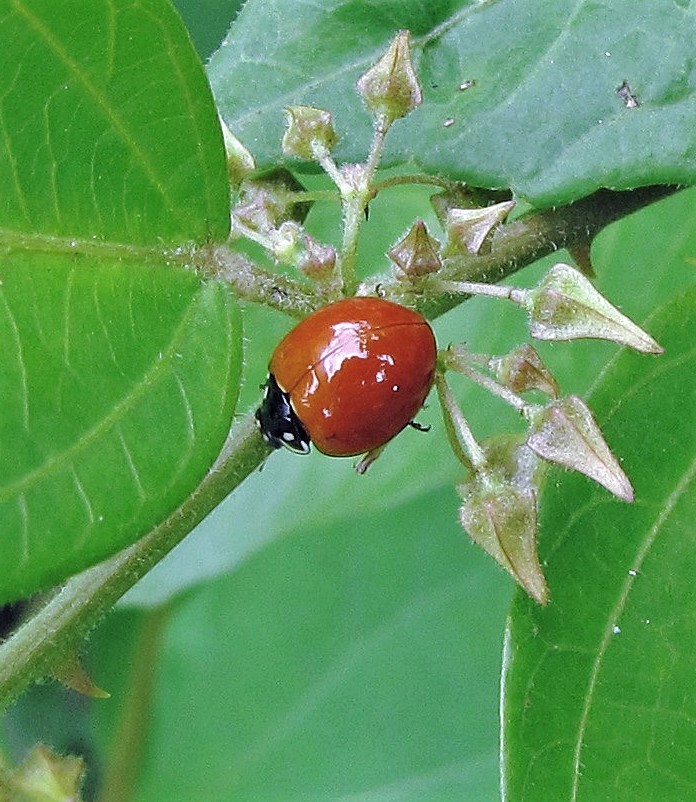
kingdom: Animalia
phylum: Arthropoda
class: Insecta
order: Coleoptera
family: Coccinellidae
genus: Cycloneda
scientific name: Cycloneda sanguinea
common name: Ladybird beetle
